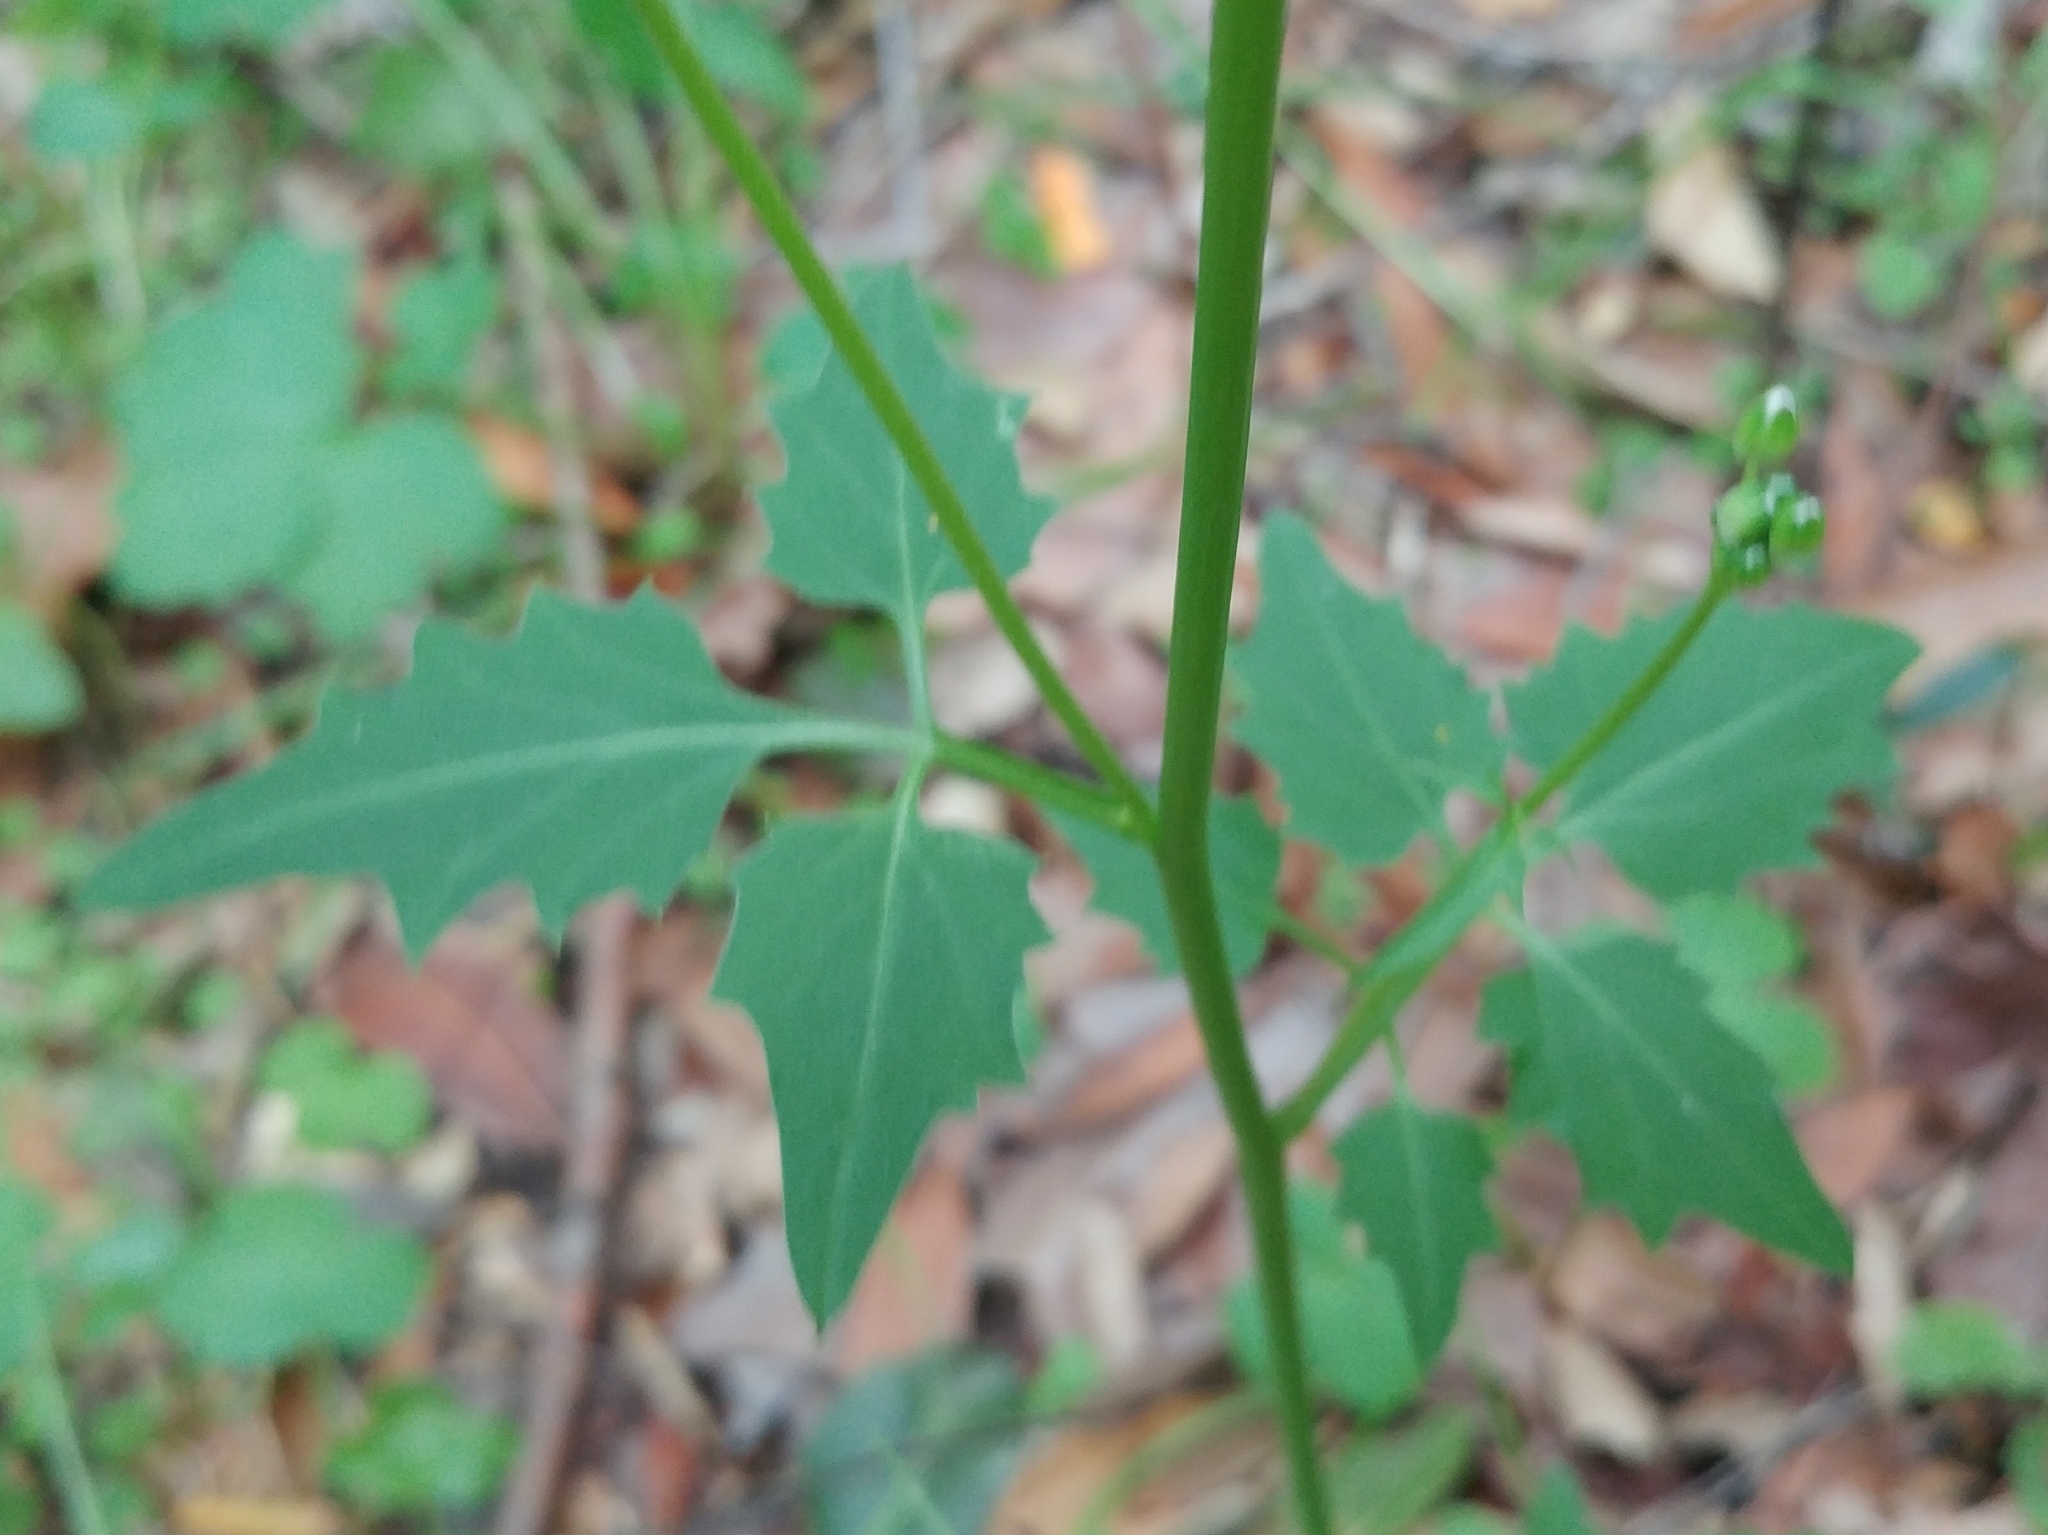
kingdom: Plantae
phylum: Tracheophyta
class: Magnoliopsida
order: Brassicales
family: Brassicaceae
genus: Cardamine
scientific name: Cardamine californica
